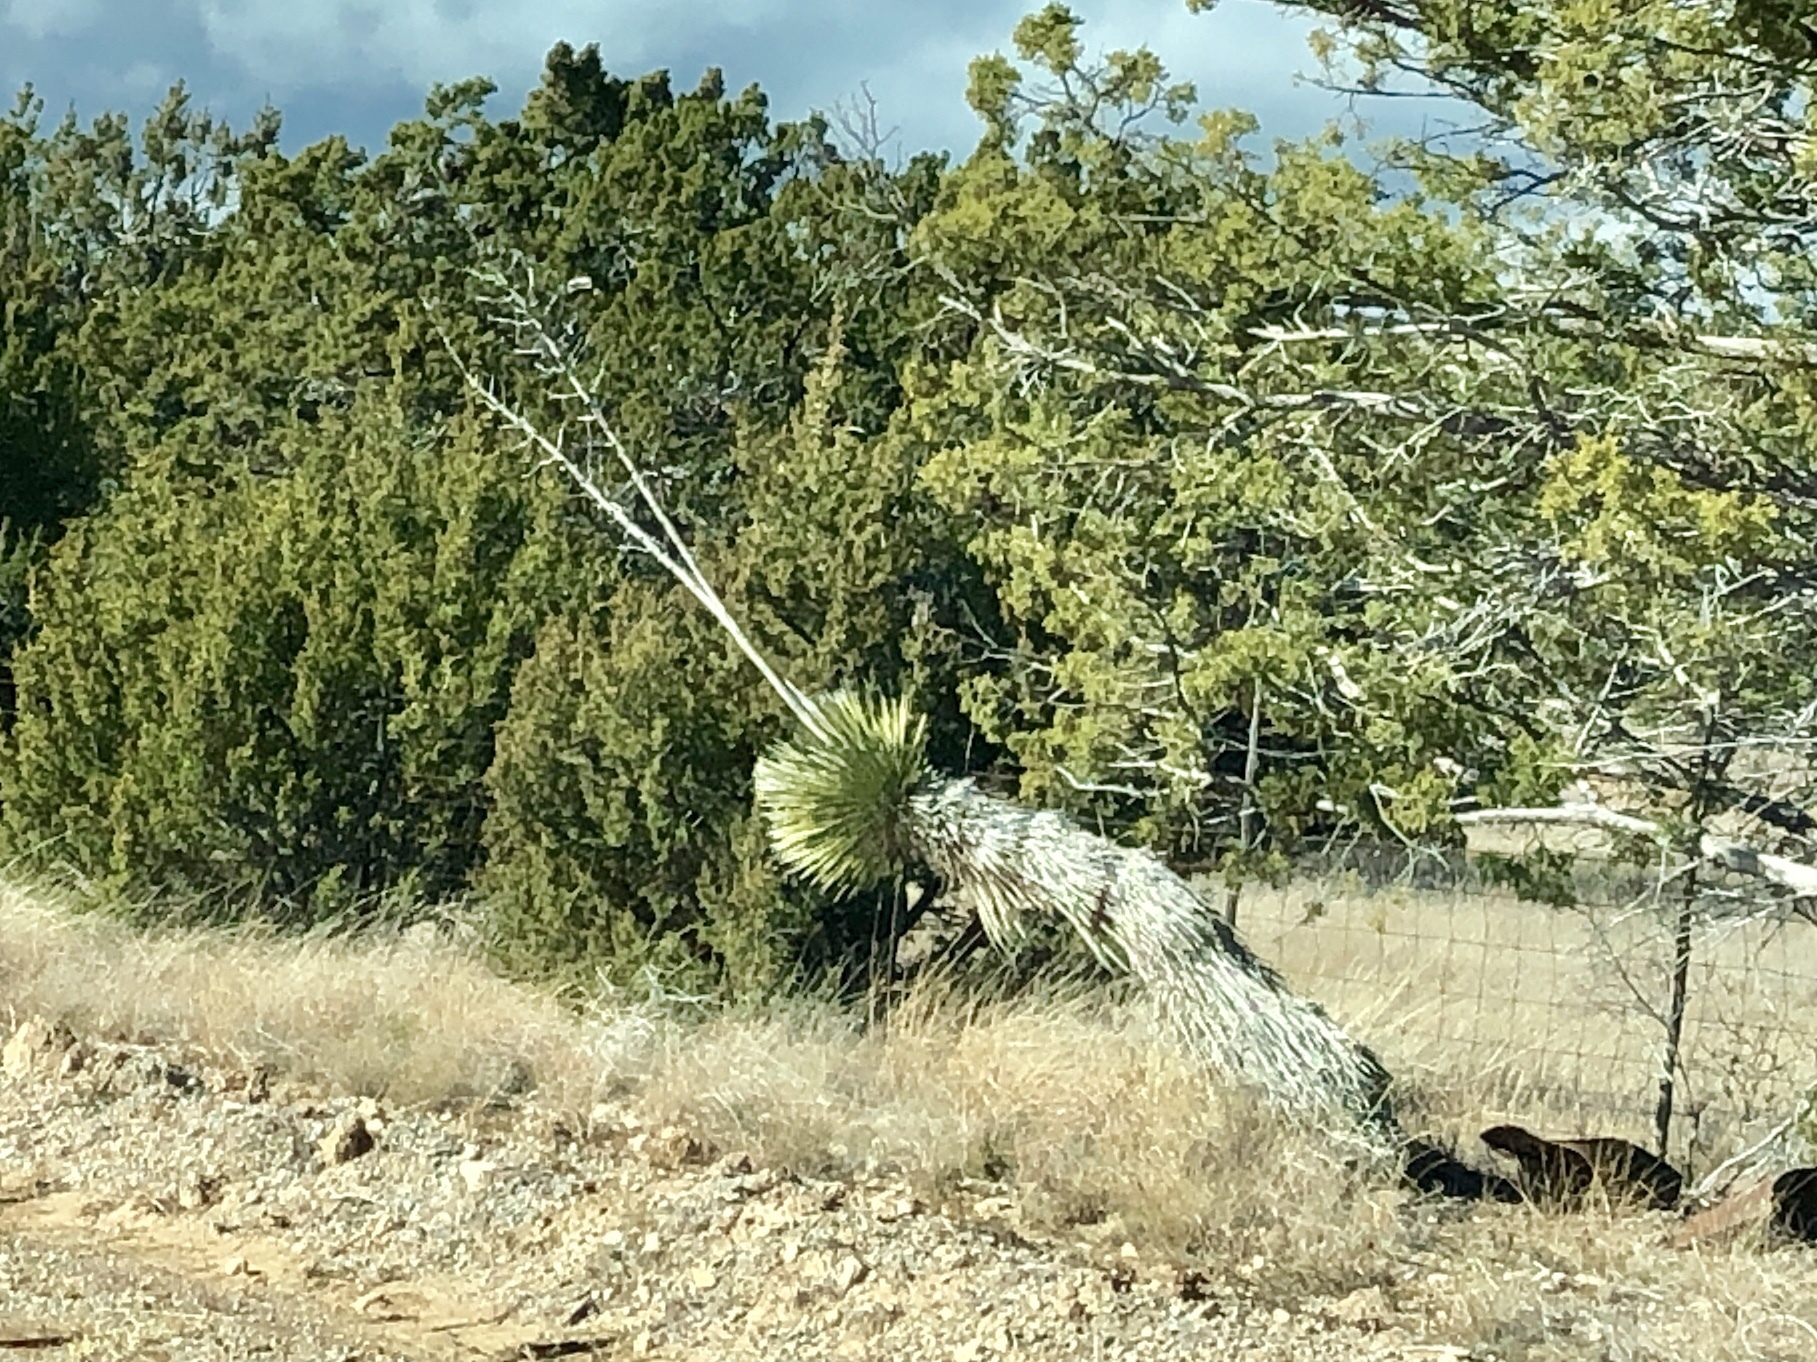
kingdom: Plantae
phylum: Tracheophyta
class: Liliopsida
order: Asparagales
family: Asparagaceae
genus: Yucca
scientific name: Yucca elata
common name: Palmella
